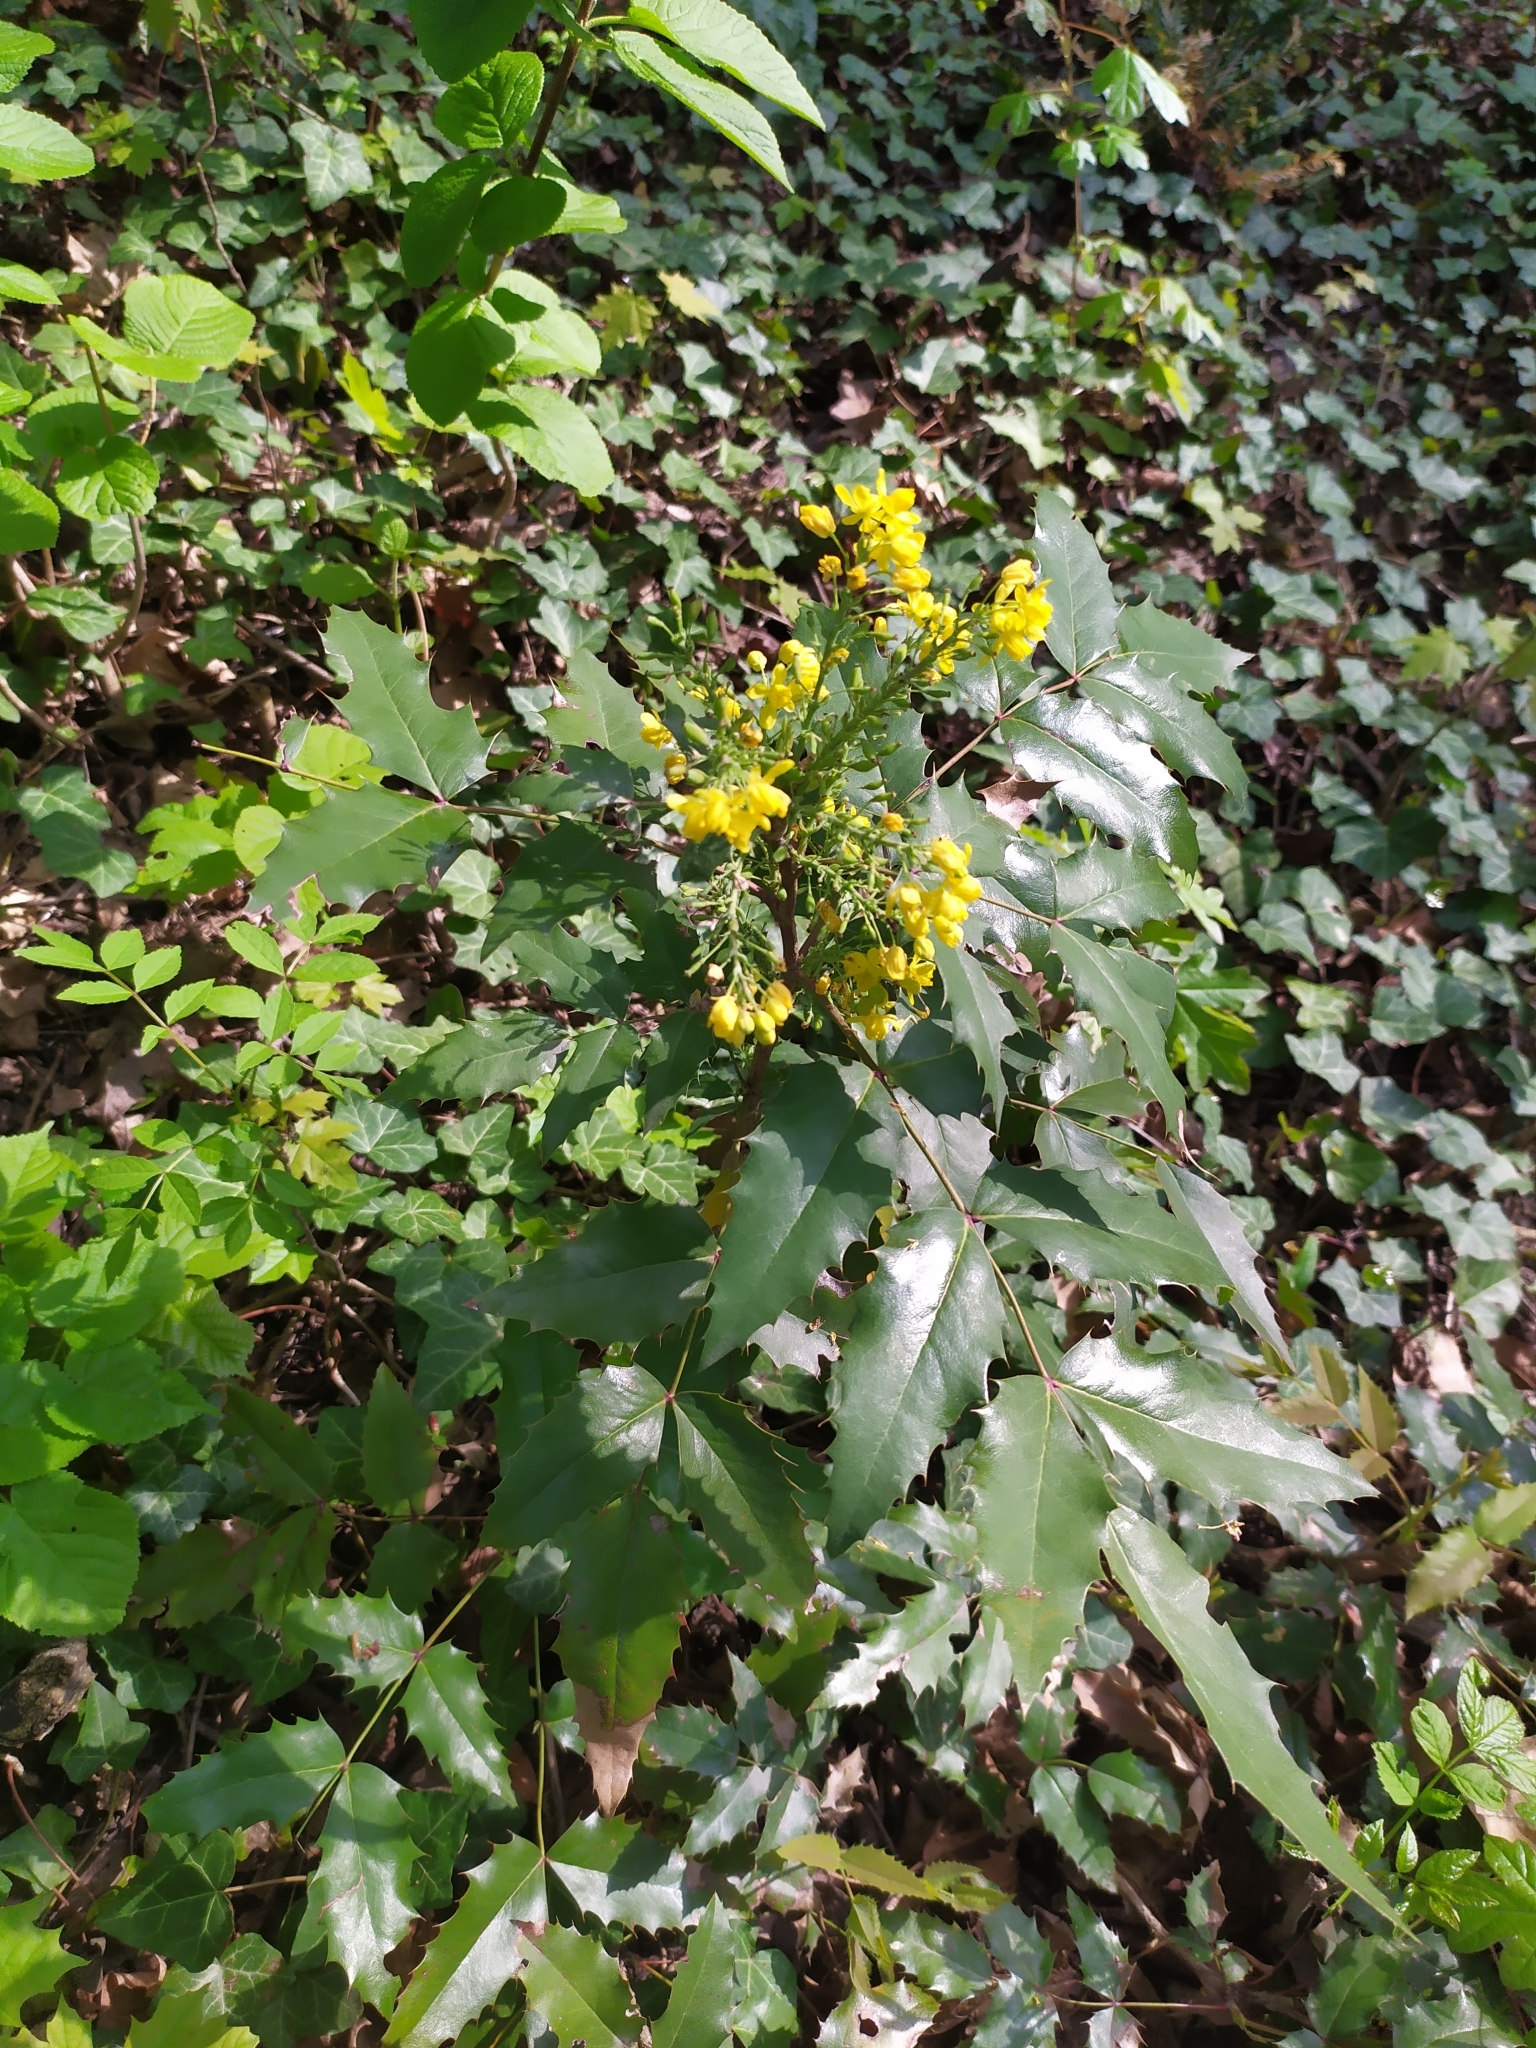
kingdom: Plantae
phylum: Tracheophyta
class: Magnoliopsida
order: Ranunculales
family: Berberidaceae
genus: Mahonia
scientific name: Mahonia aquifolium
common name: Oregon-grape
